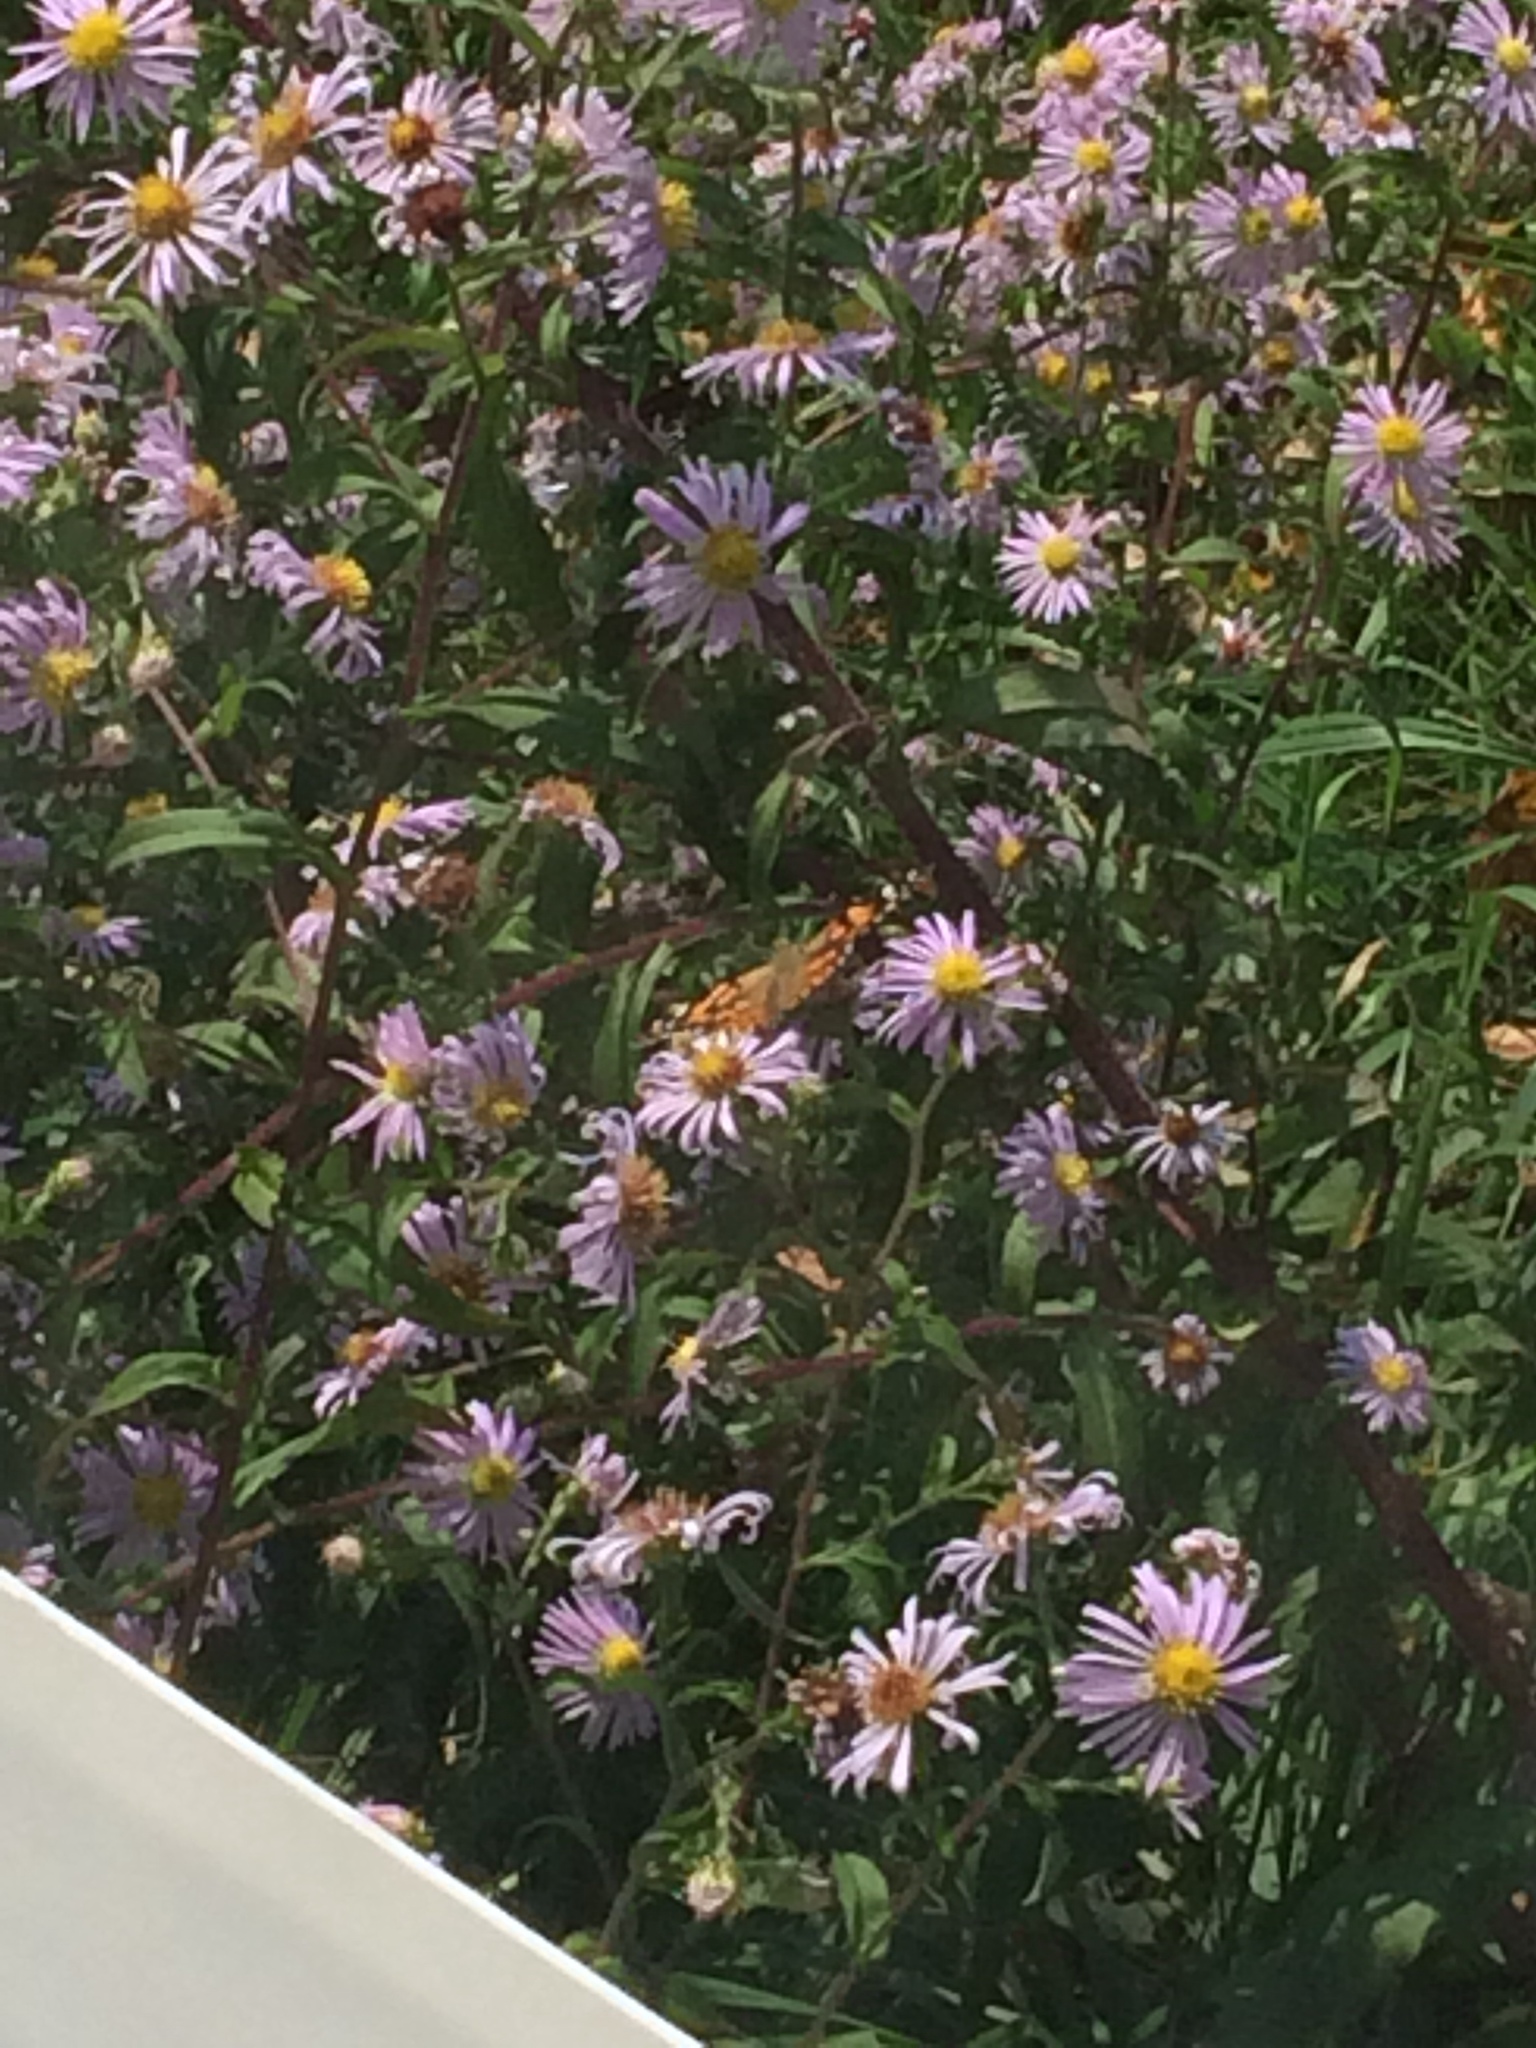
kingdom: Animalia
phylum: Arthropoda
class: Insecta
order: Lepidoptera
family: Nymphalidae
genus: Vanessa
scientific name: Vanessa cardui
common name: Painted lady
